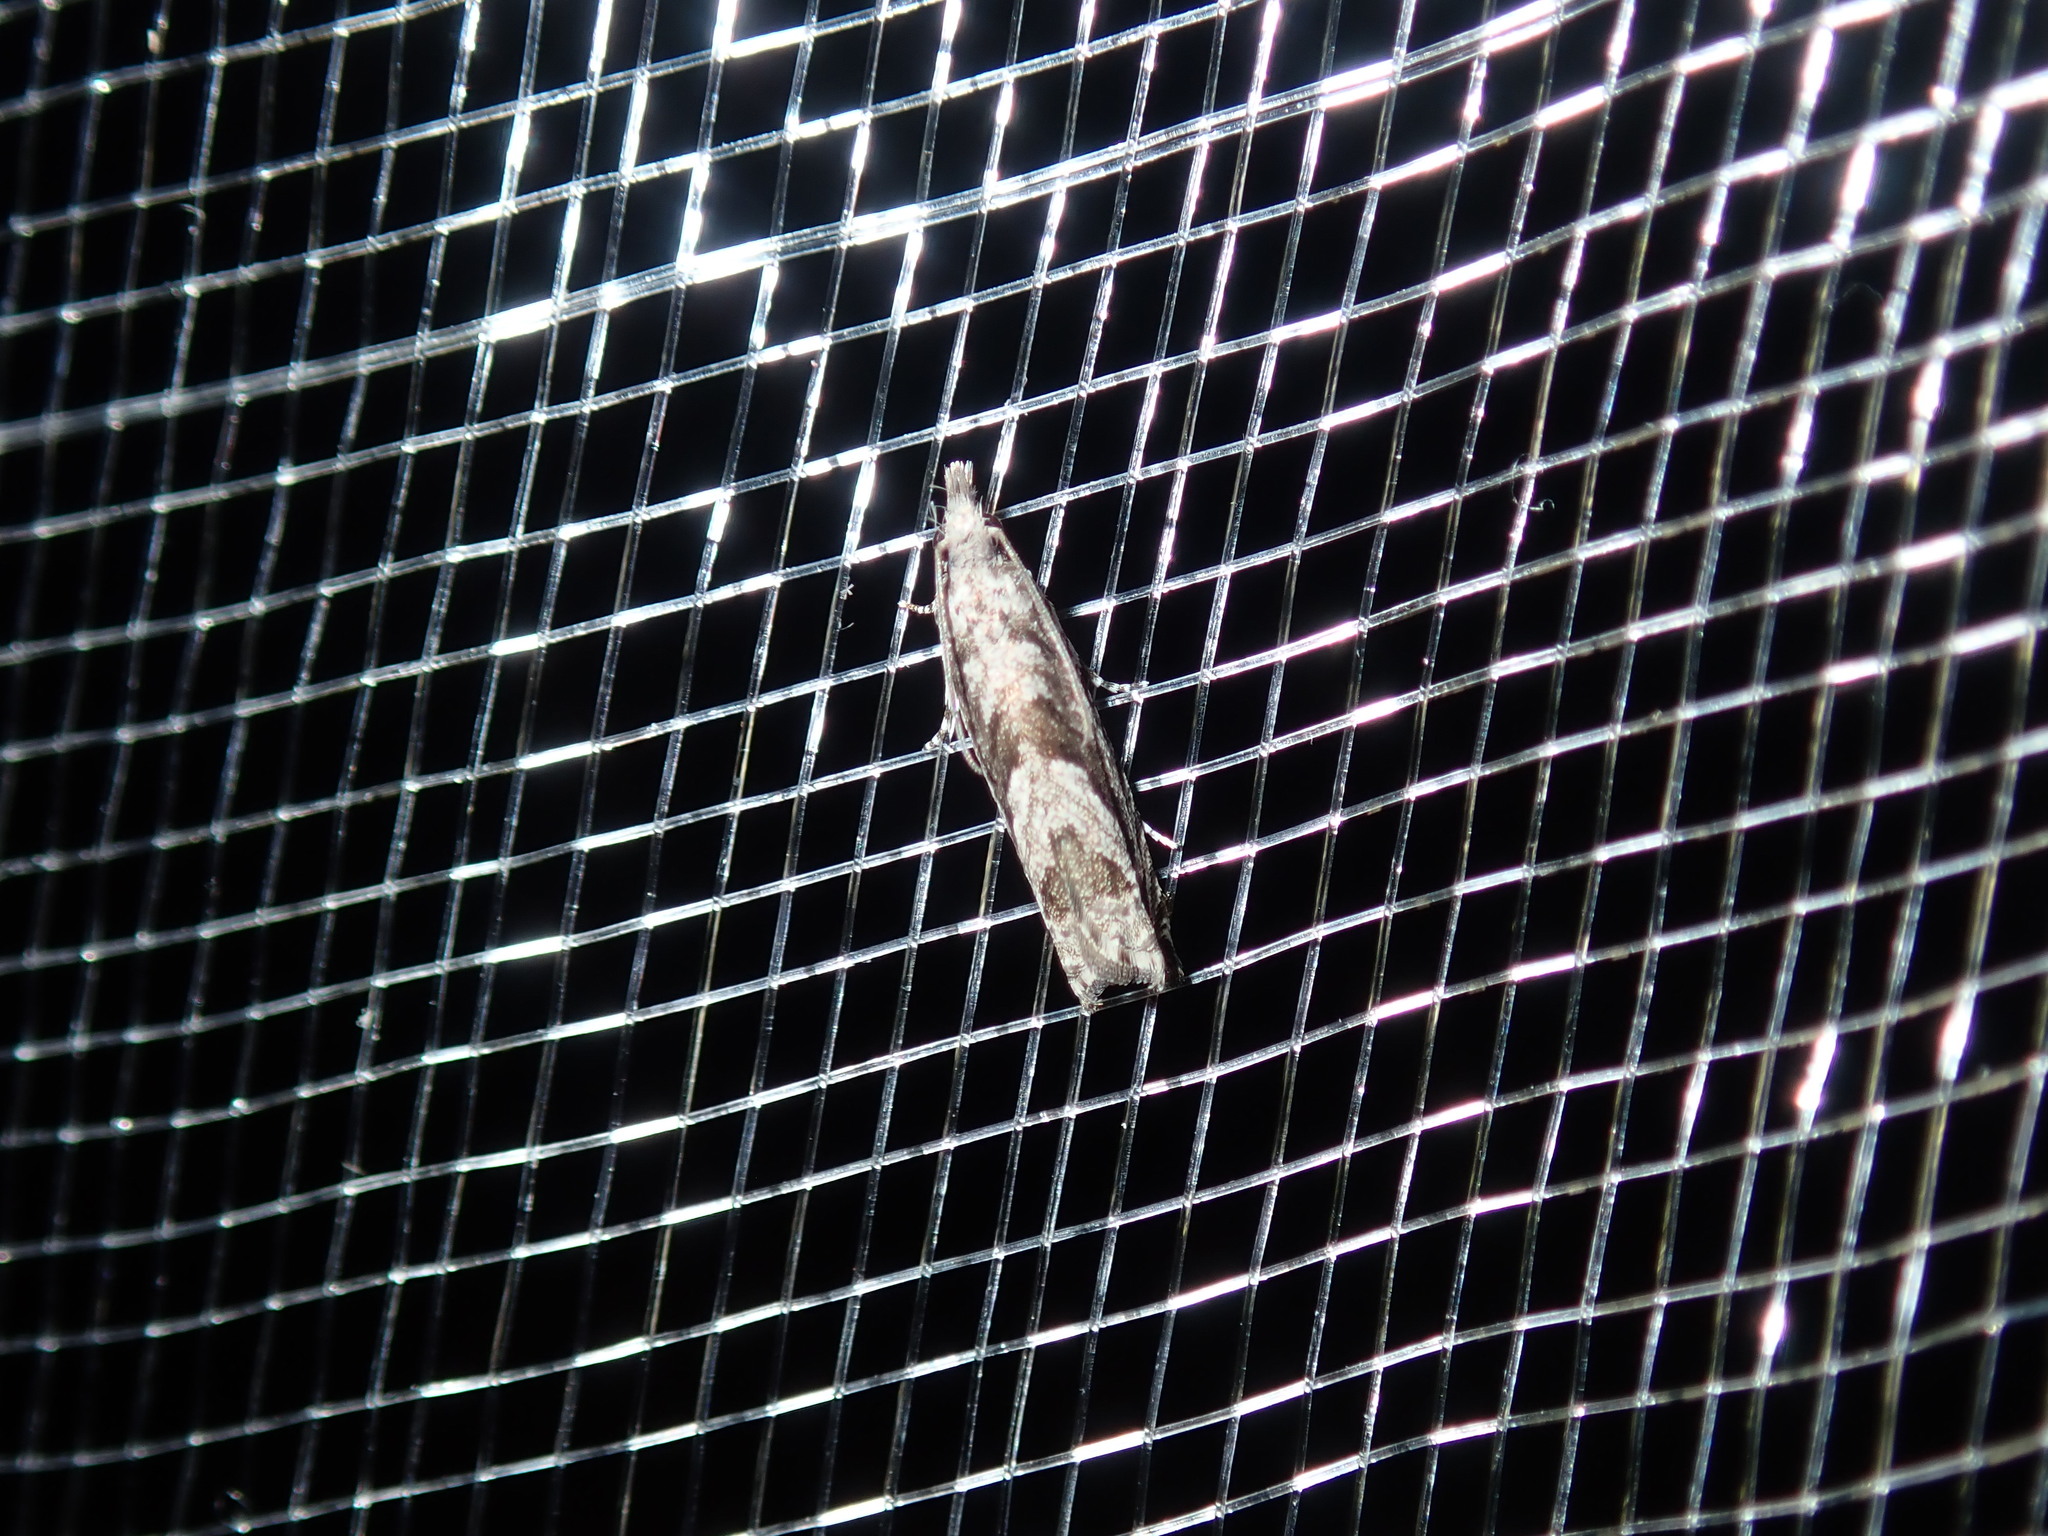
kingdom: Animalia
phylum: Arthropoda
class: Insecta
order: Lepidoptera
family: Tortricidae
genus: Holocola
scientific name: Holocola thalassinana
